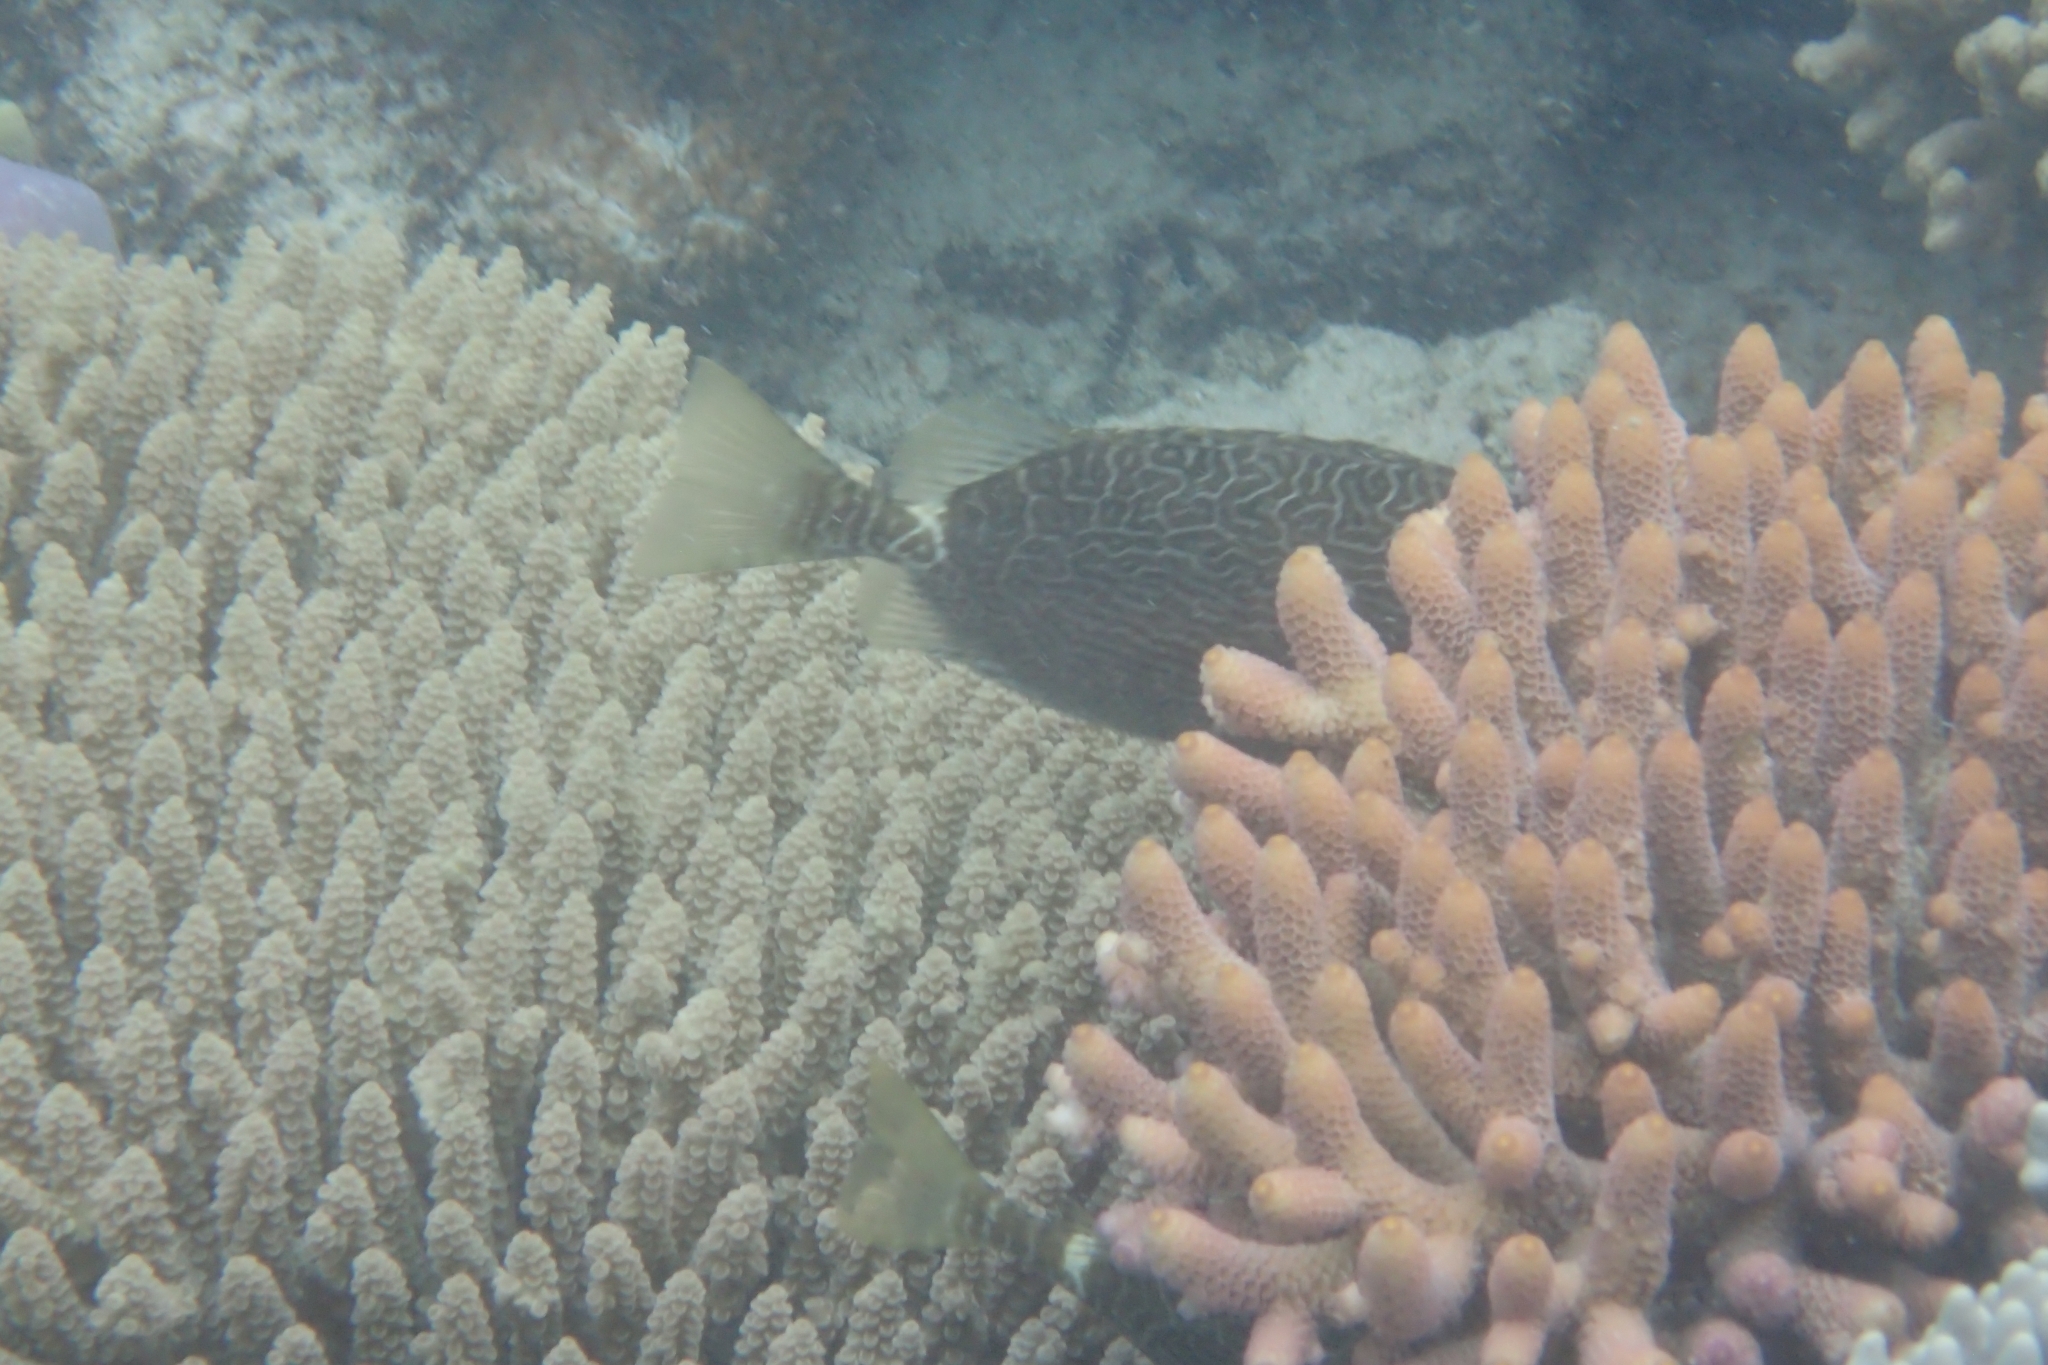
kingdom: Animalia
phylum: Chordata
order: Perciformes
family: Siganidae
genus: Siganus
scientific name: Siganus spinus
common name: Scribbled rabbitfish
